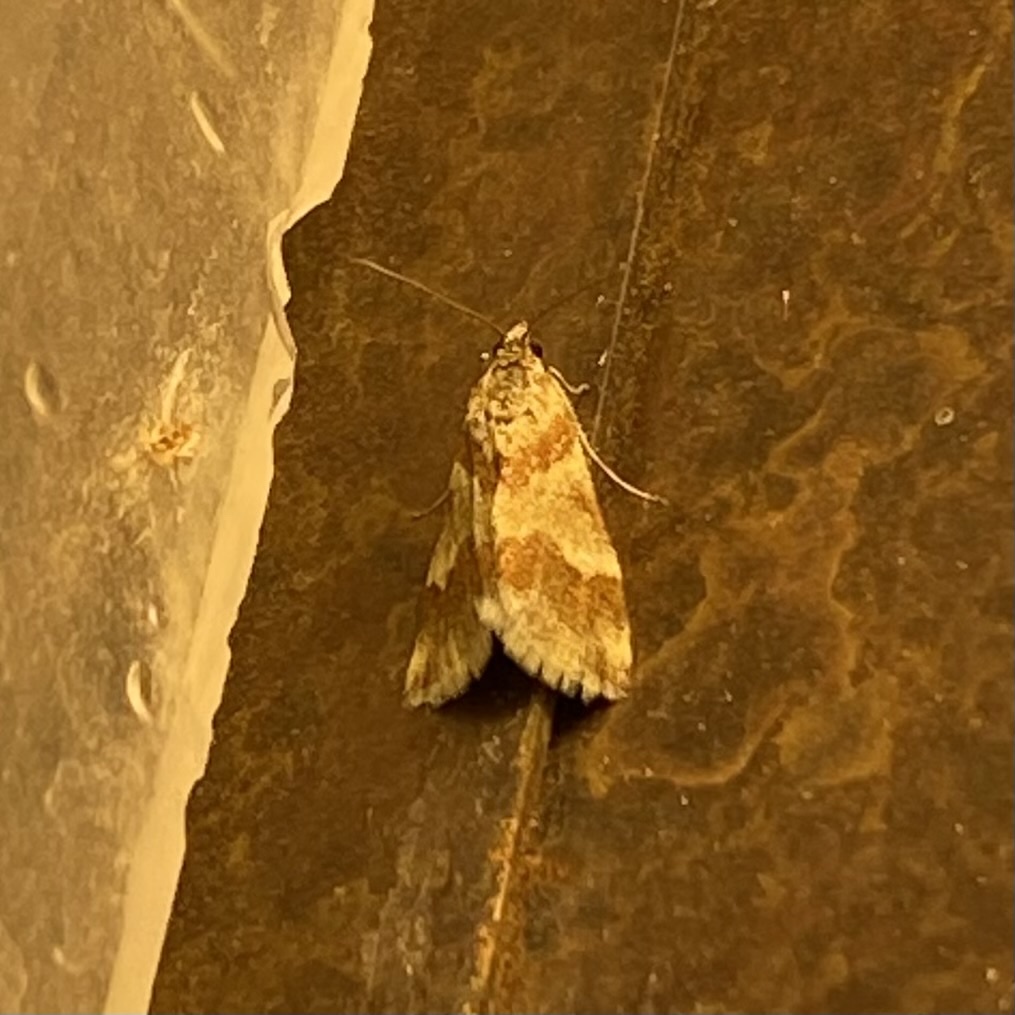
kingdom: Animalia
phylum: Arthropoda
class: Insecta
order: Lepidoptera
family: Crambidae
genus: Noctuelia
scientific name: Noctuelia Mimoschinia rufofascialis
